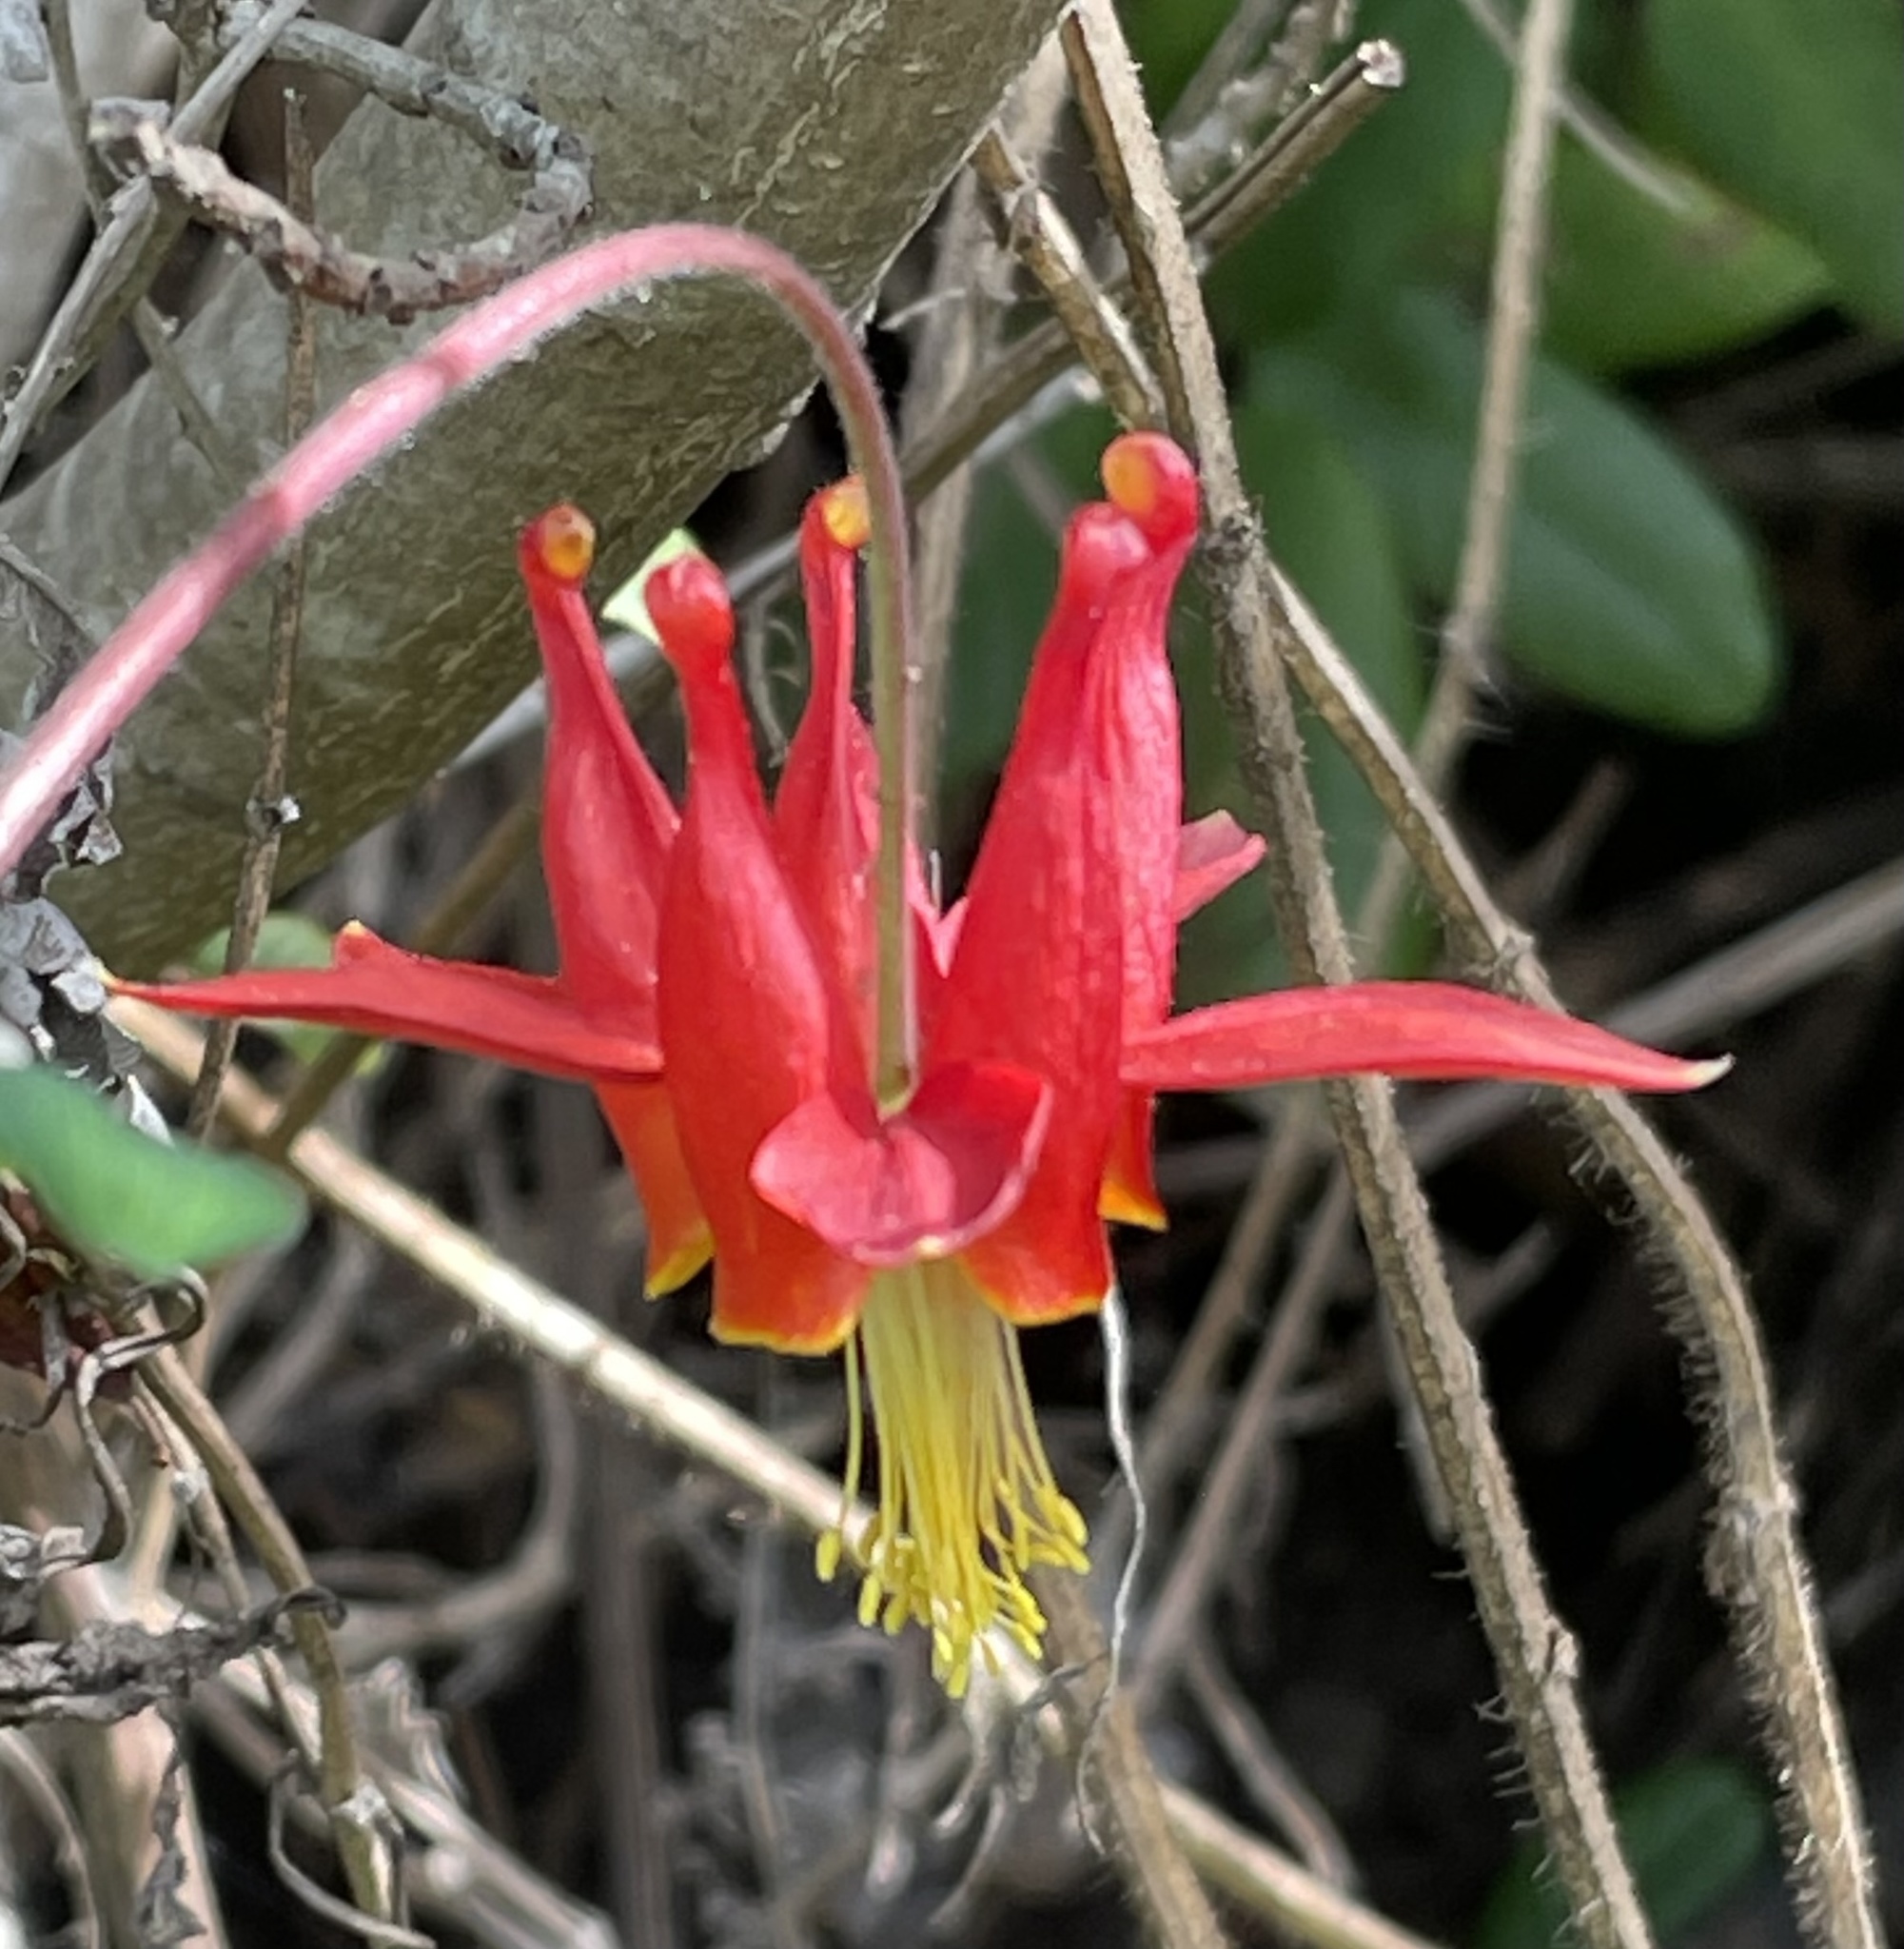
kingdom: Plantae
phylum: Tracheophyta
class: Magnoliopsida
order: Ranunculales
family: Ranunculaceae
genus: Aquilegia
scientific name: Aquilegia formosa
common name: Sitka columbine
